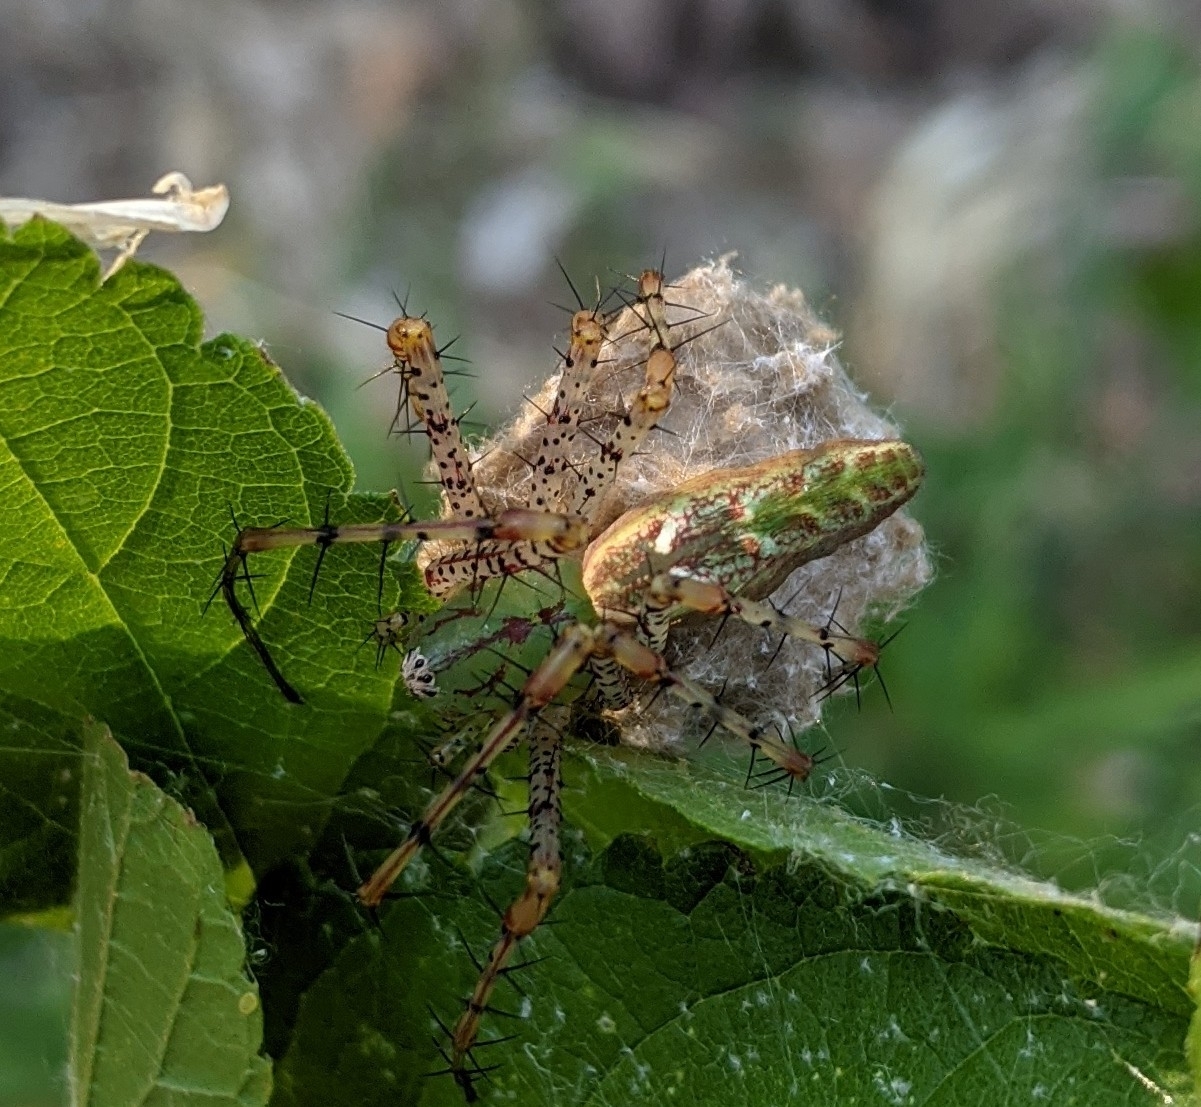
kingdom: Animalia
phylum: Arthropoda
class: Arachnida
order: Araneae
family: Oxyopidae
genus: Peucetia
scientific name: Peucetia viridans
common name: Lynx spiders
